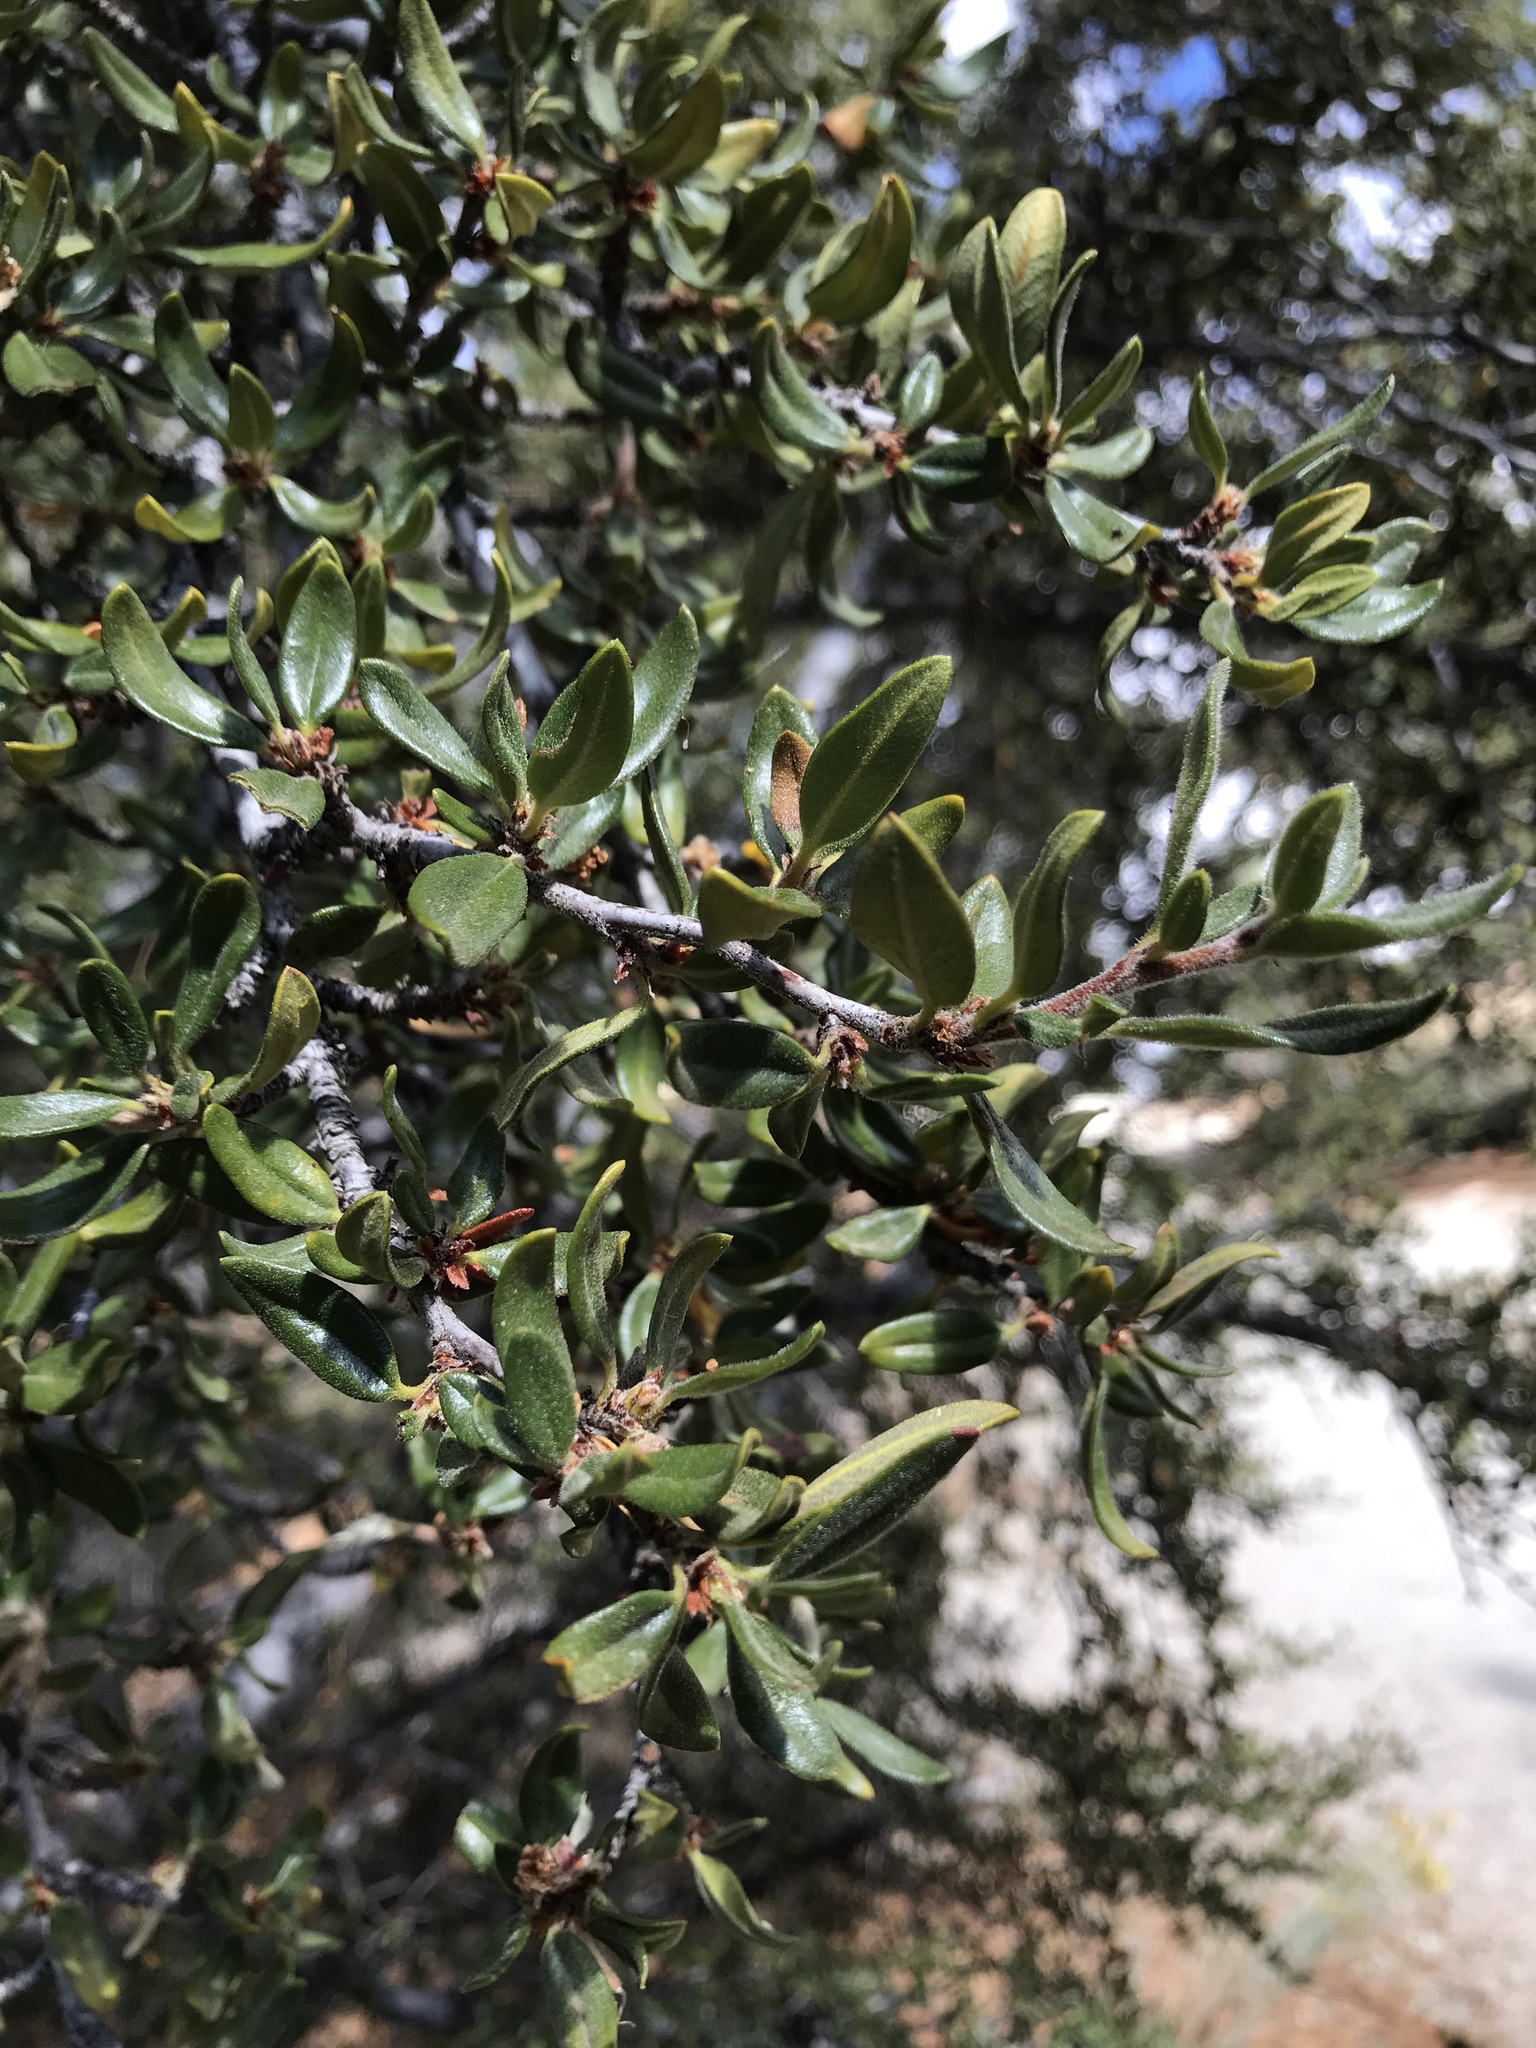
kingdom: Plantae
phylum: Tracheophyta
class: Magnoliopsida
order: Rosales
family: Rosaceae
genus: Cercocarpus
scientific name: Cercocarpus ledifolius
